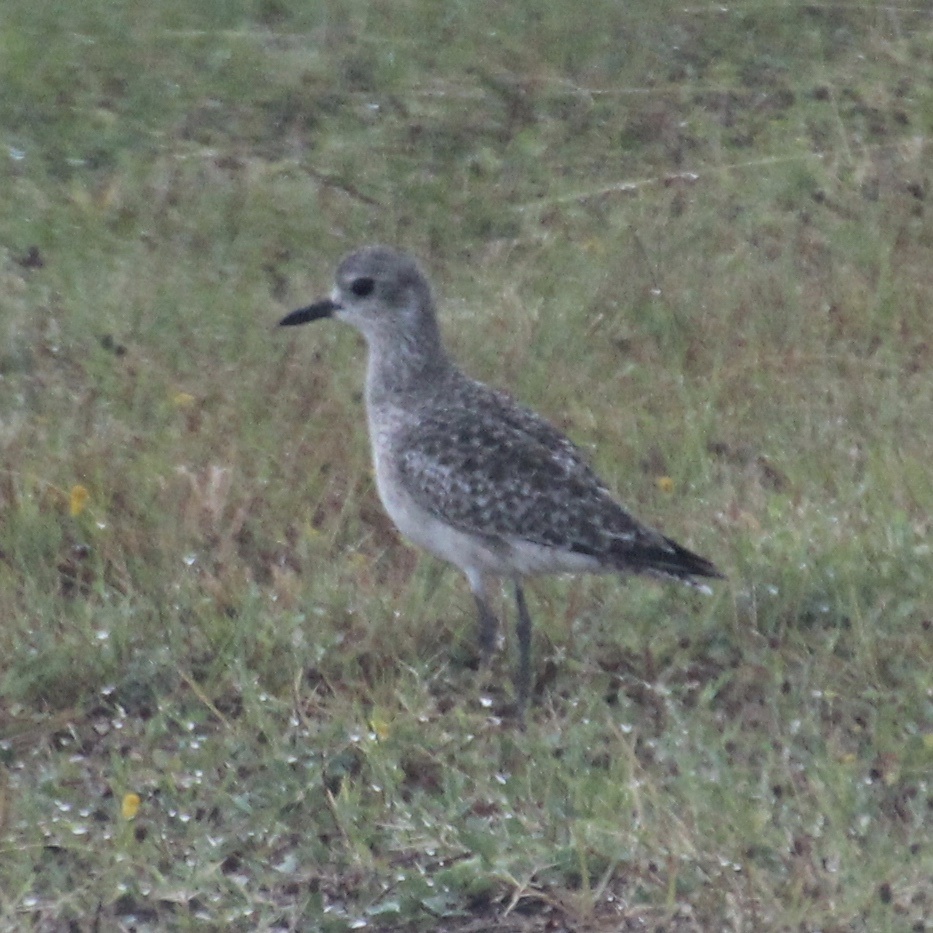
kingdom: Animalia
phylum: Chordata
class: Aves
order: Charadriiformes
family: Charadriidae
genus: Pluvialis
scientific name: Pluvialis squatarola
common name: Grey plover
